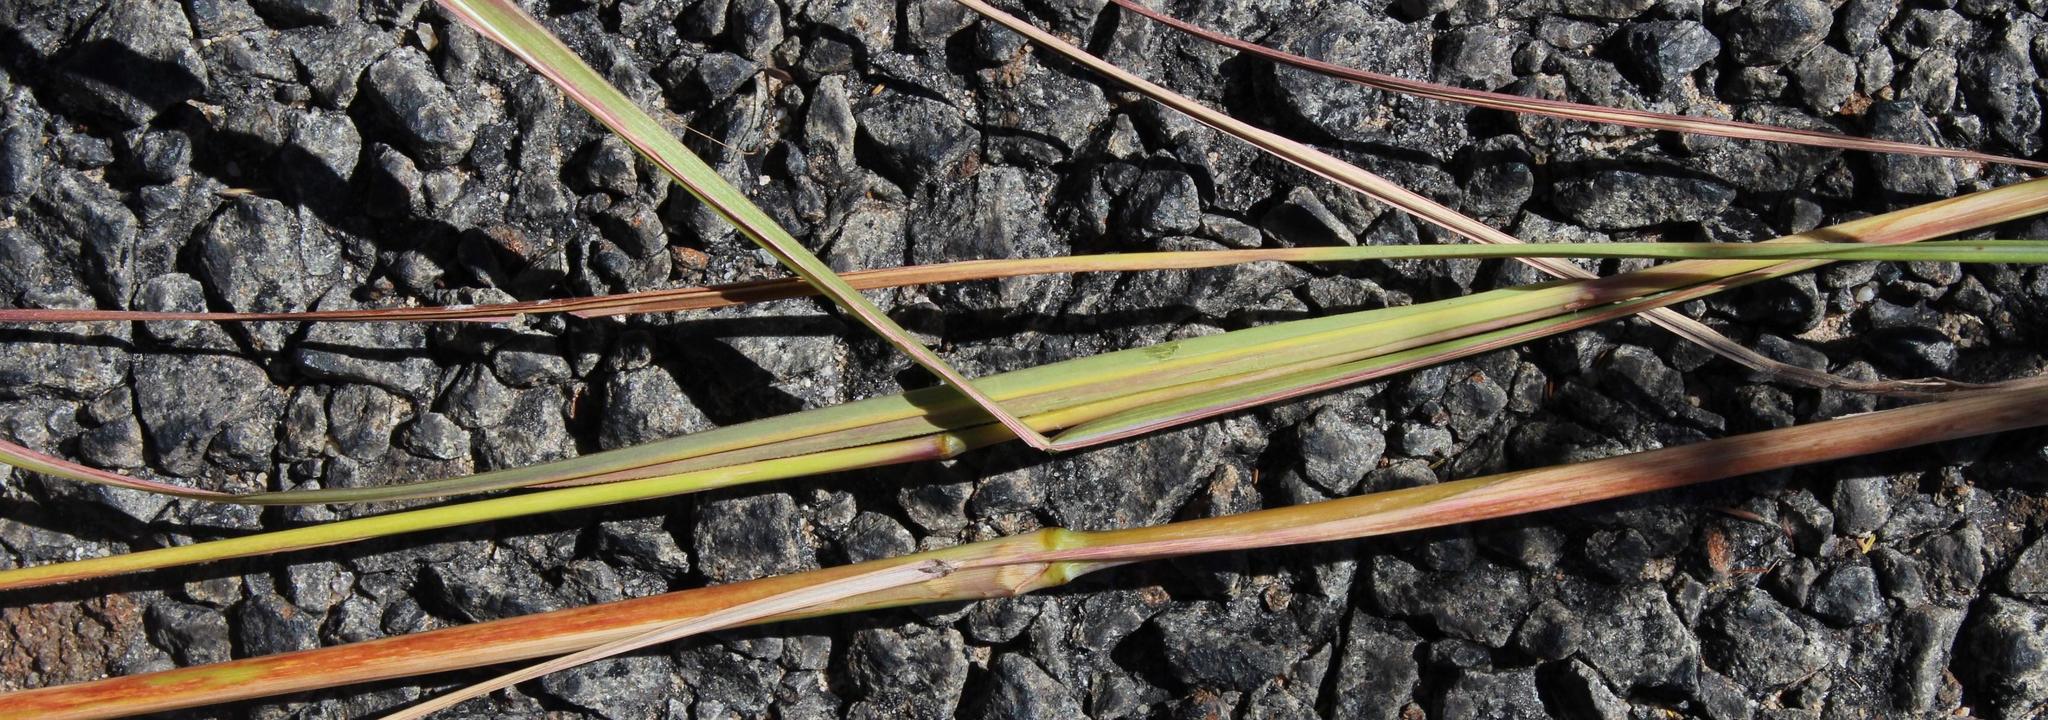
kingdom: Plantae
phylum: Tracheophyta
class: Liliopsida
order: Poales
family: Poaceae
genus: Hyparrhenia
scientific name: Hyparrhenia hirta
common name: Thatching grass
